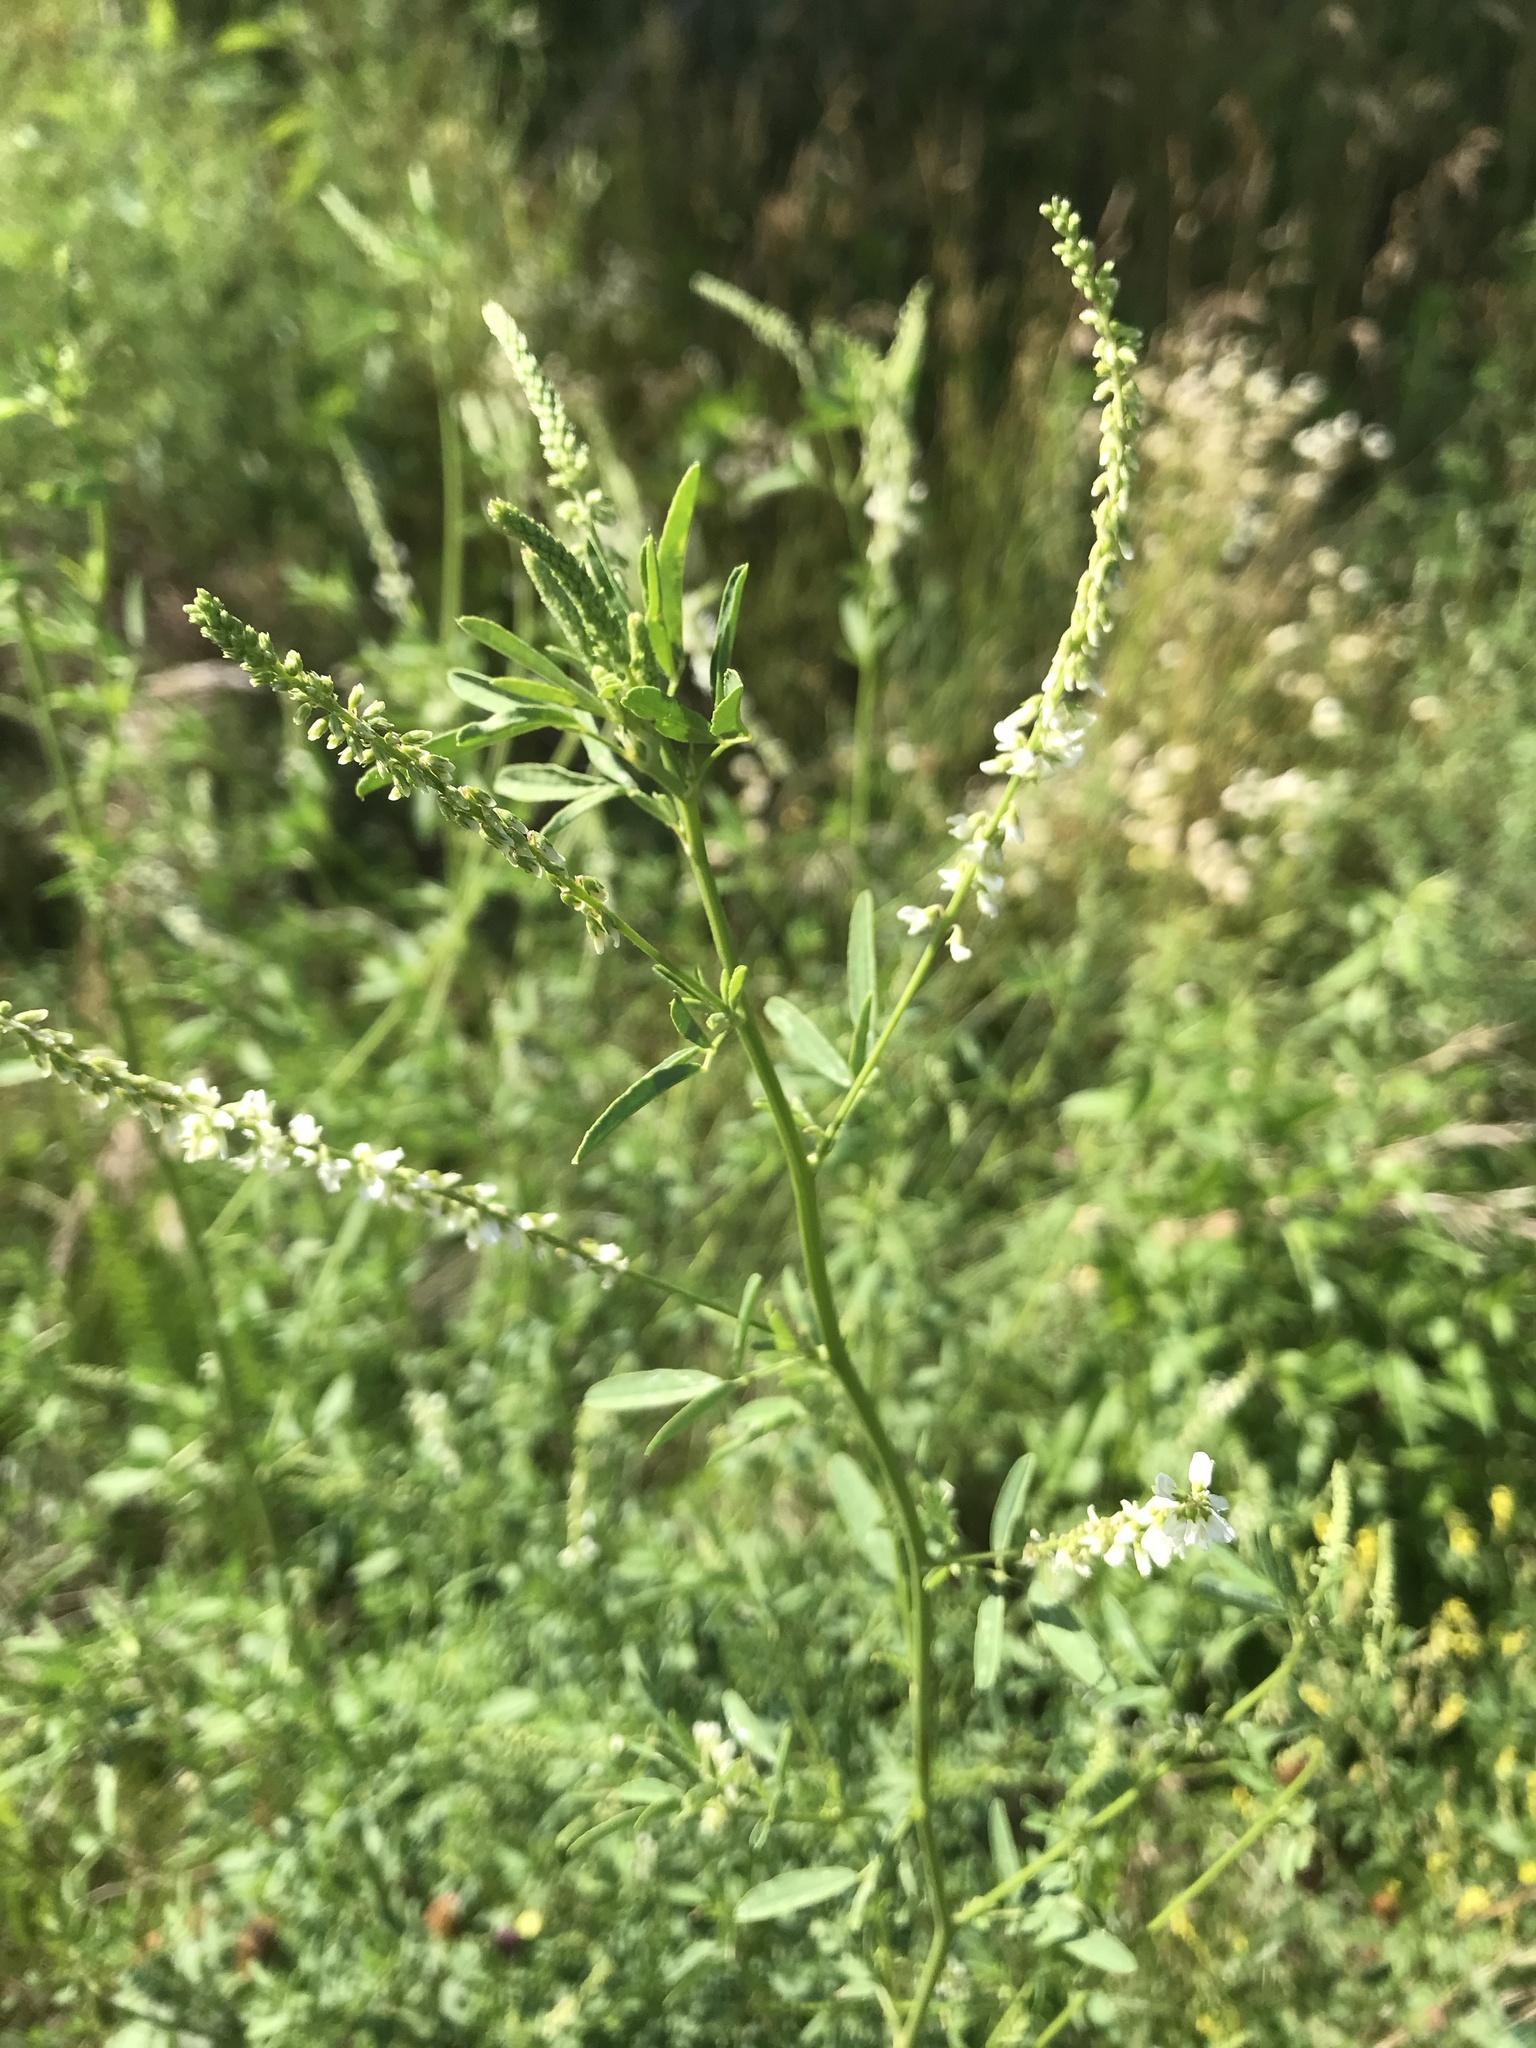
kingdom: Plantae
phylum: Tracheophyta
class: Magnoliopsida
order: Fabales
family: Fabaceae
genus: Melilotus
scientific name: Melilotus albus
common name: White melilot
